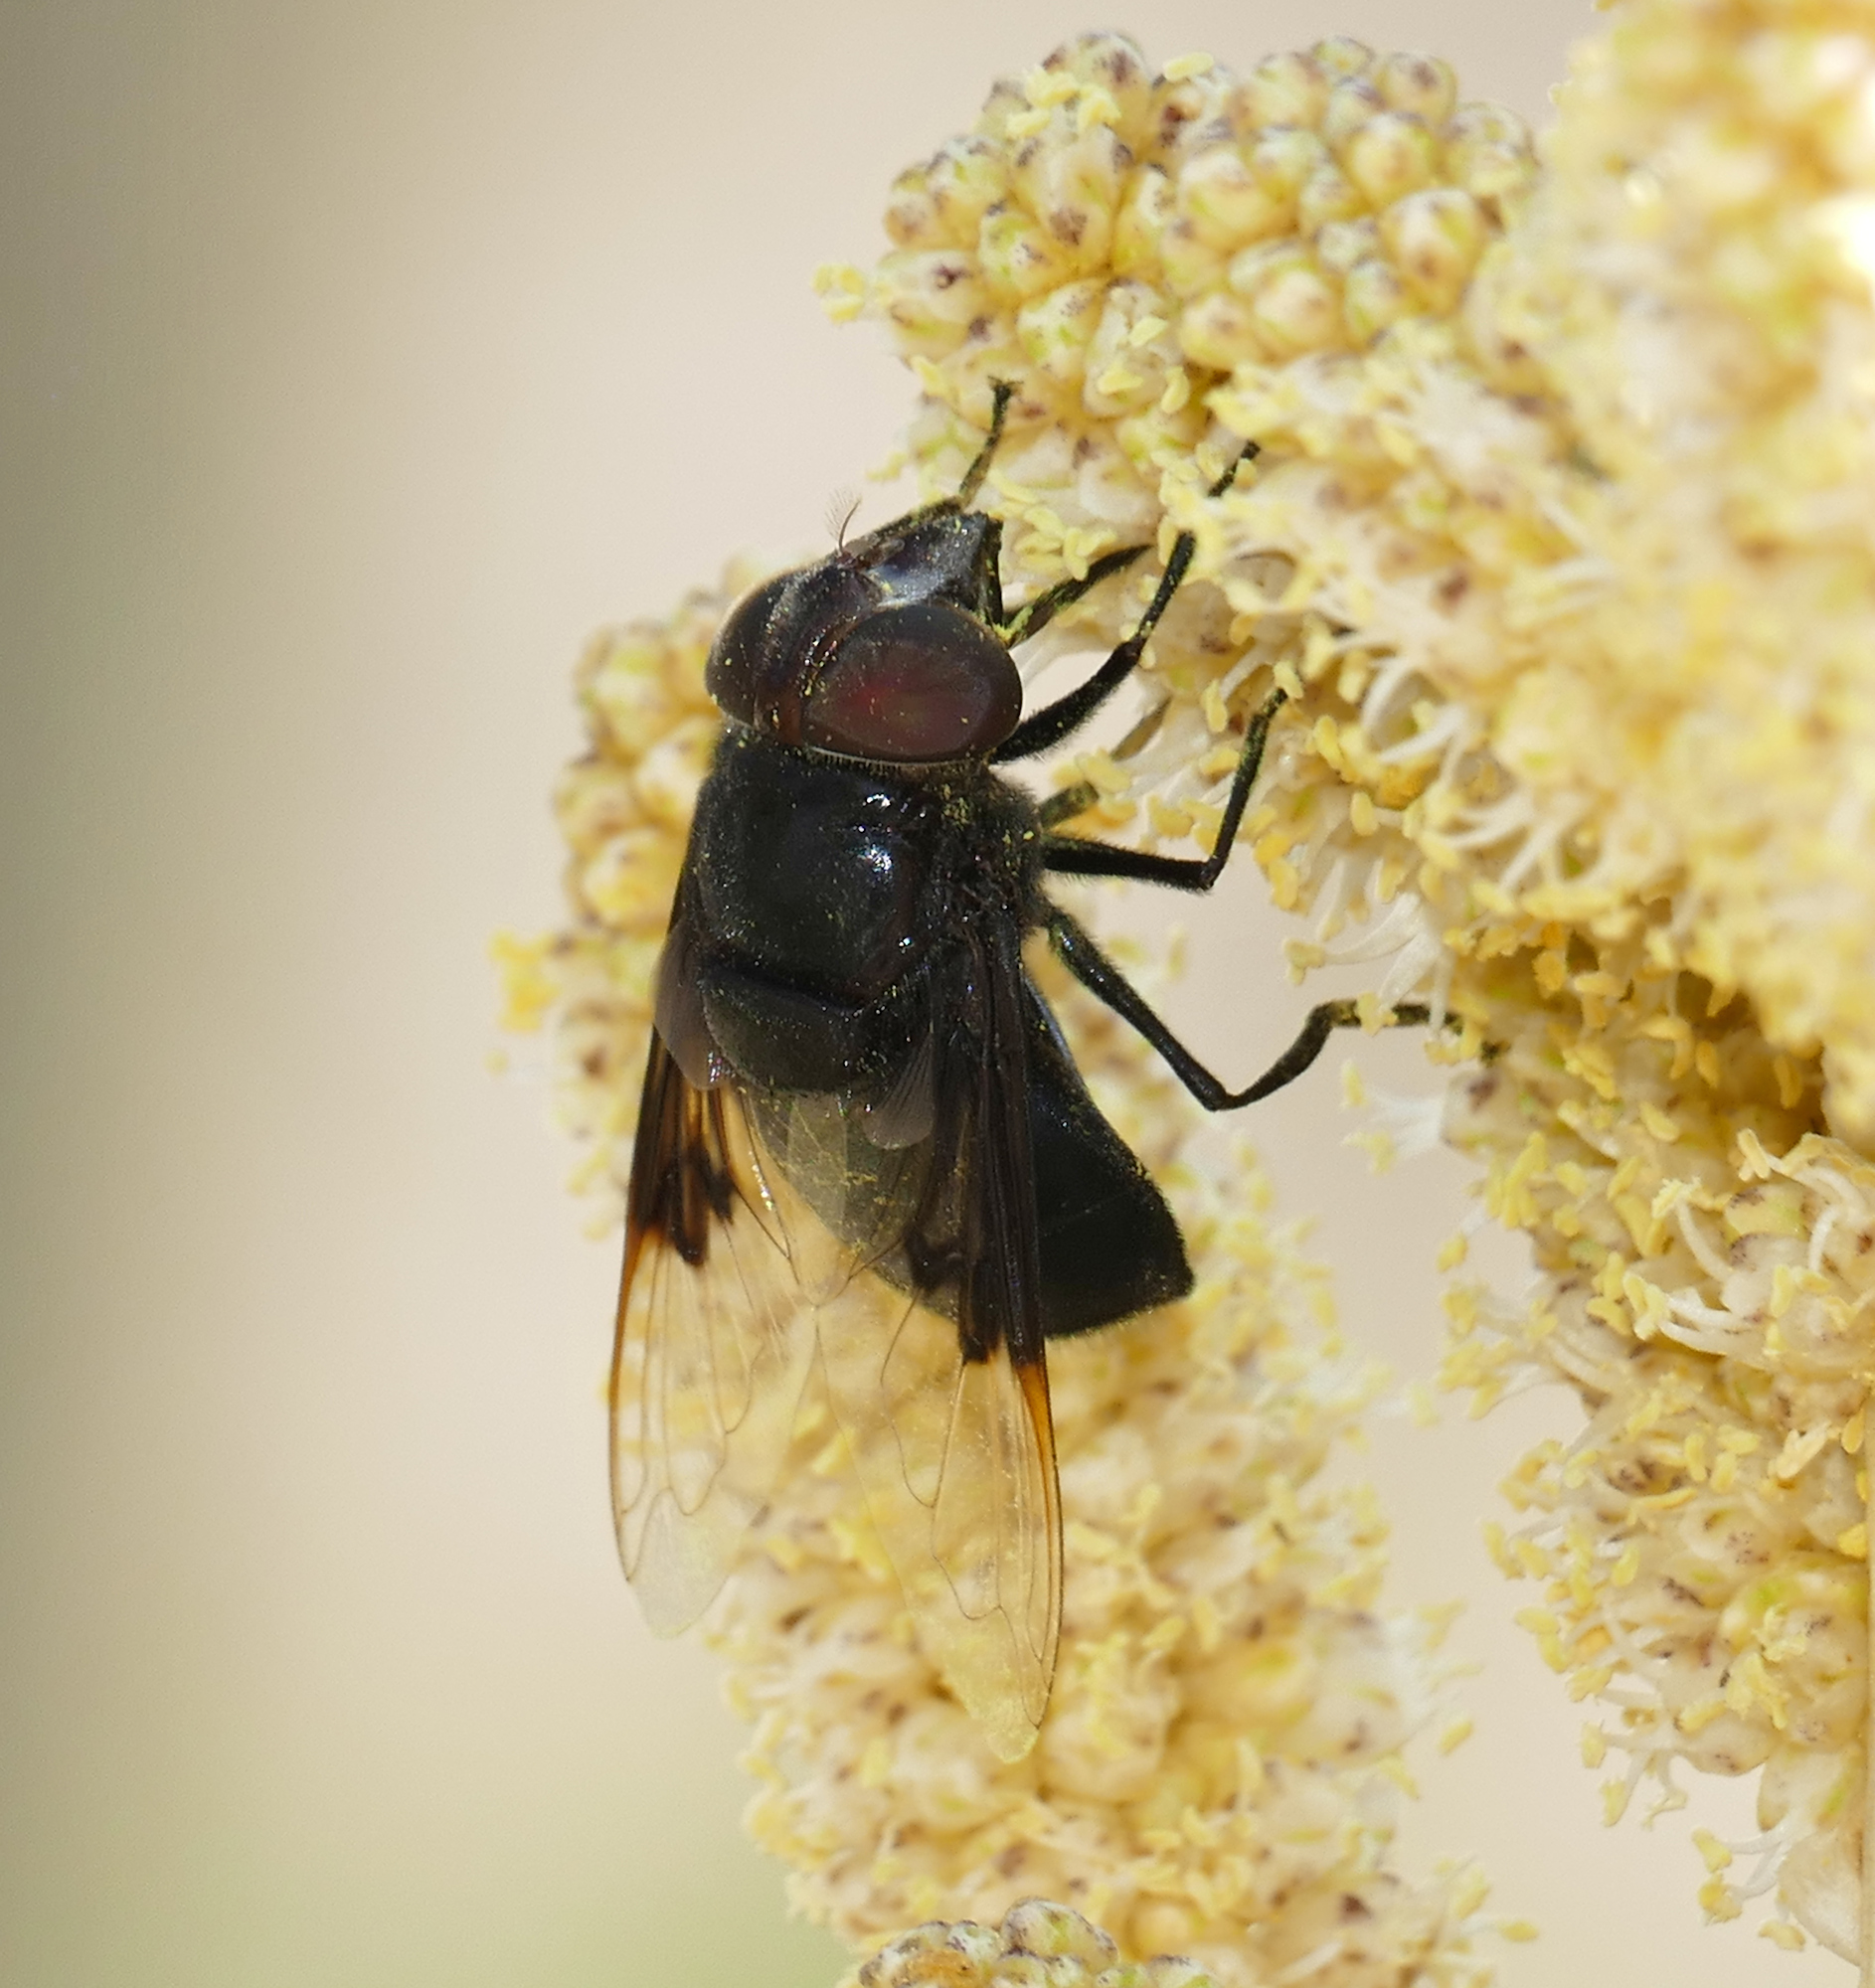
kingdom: Animalia
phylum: Arthropoda
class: Insecta
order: Diptera
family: Syrphidae
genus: Copestylum
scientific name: Copestylum mexicanum
